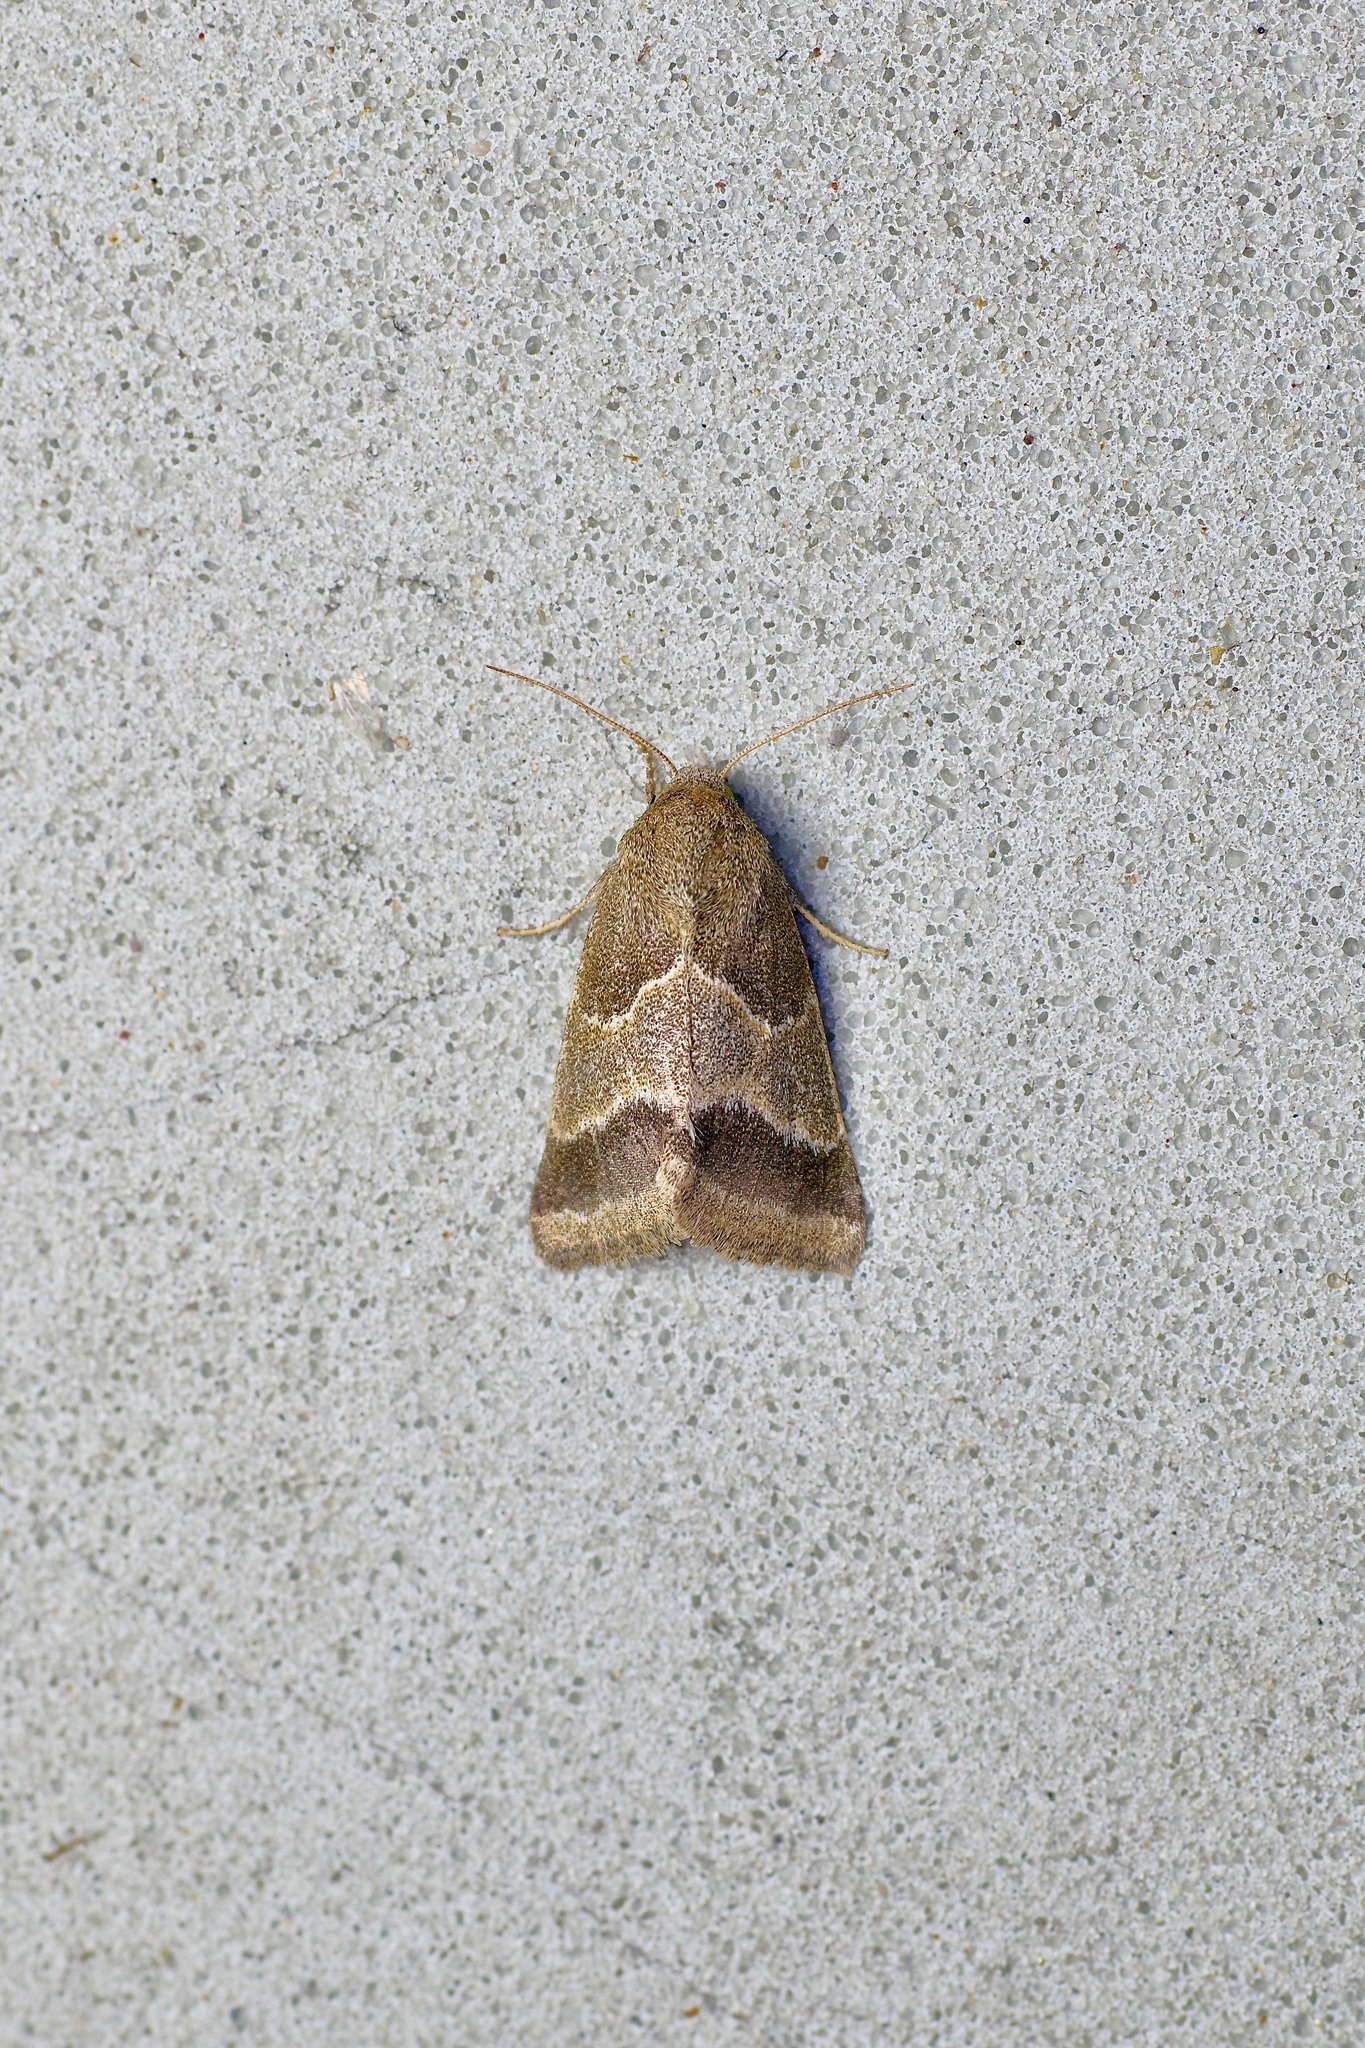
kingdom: Animalia
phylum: Arthropoda
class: Insecta
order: Lepidoptera
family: Noctuidae
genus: Schinia
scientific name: Schinia gracilenta
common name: Slender flower moth
